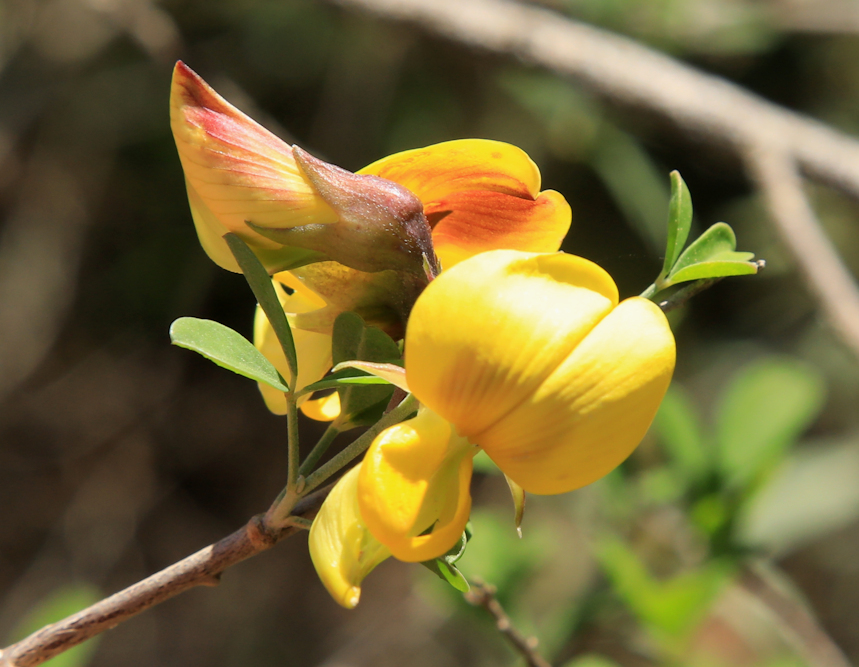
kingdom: Plantae
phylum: Tracheophyta
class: Magnoliopsida
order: Fabales
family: Fabaceae
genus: Crotalaria
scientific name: Crotalaria monteiroi
